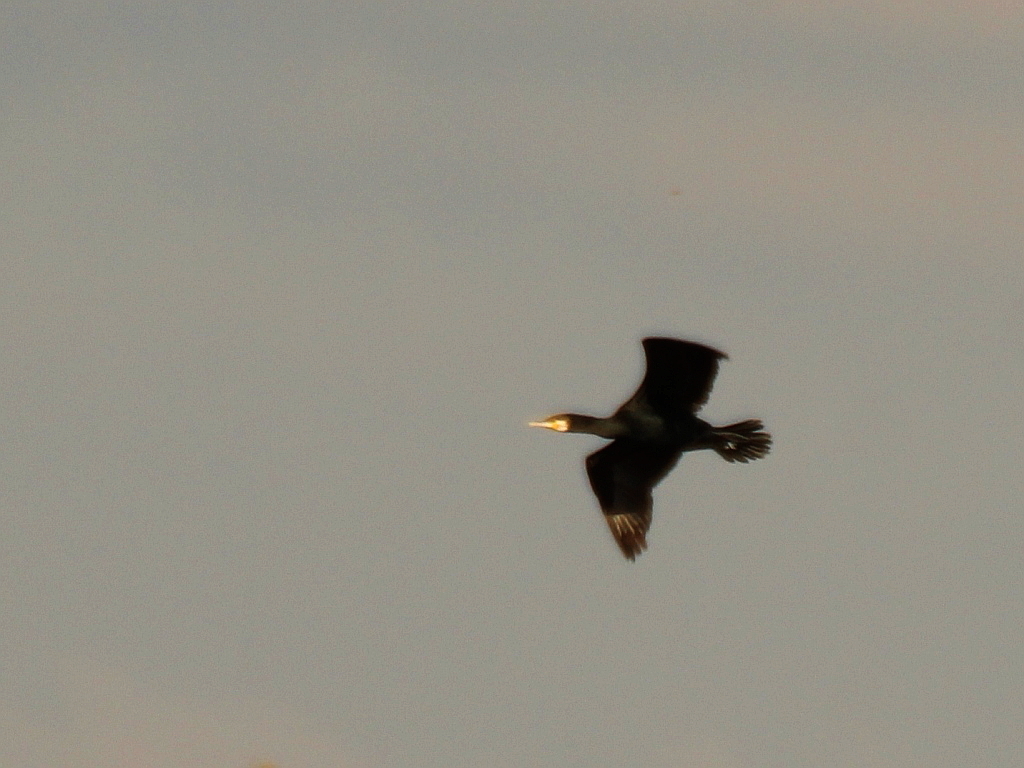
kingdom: Animalia
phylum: Chordata
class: Aves
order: Suliformes
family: Phalacrocoracidae
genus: Phalacrocorax
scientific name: Phalacrocorax carbo
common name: Great cormorant
